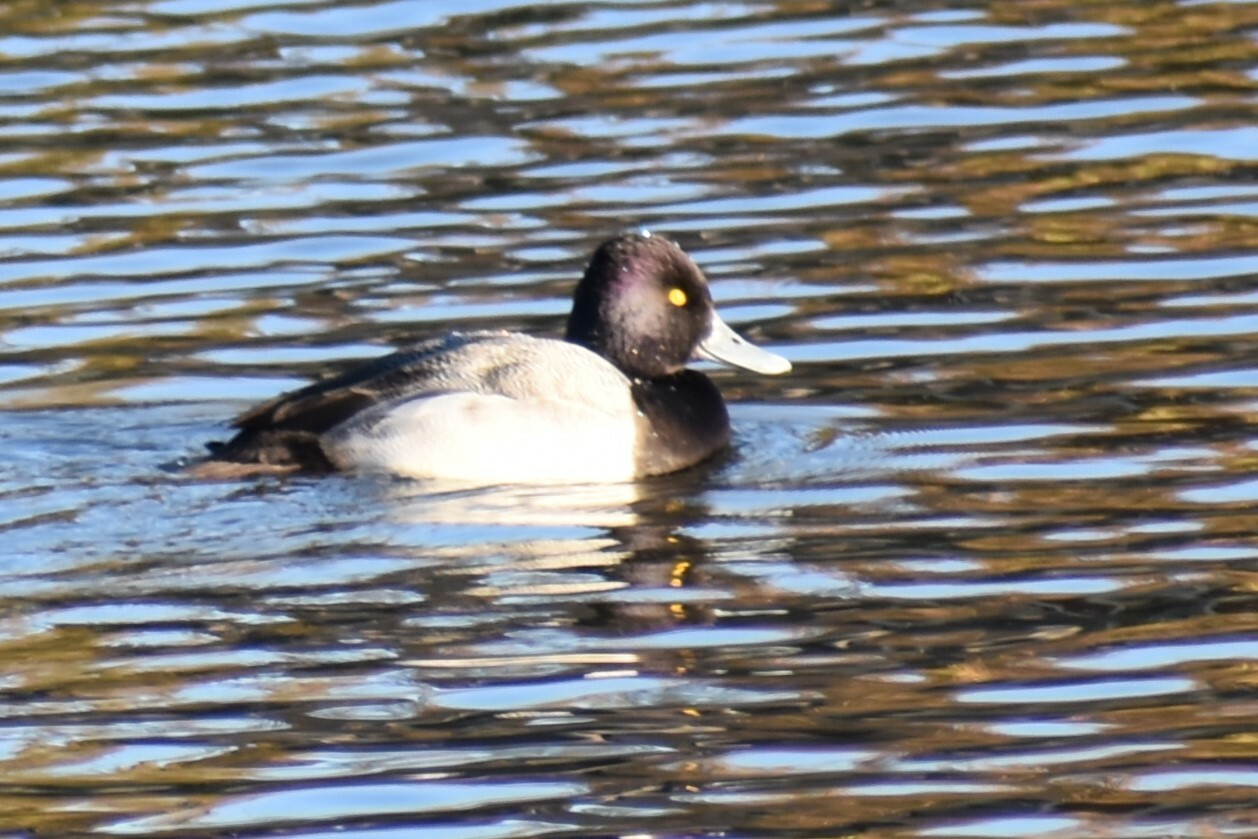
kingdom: Animalia
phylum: Chordata
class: Aves
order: Anseriformes
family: Anatidae
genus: Aythya
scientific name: Aythya affinis
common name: Lesser scaup
